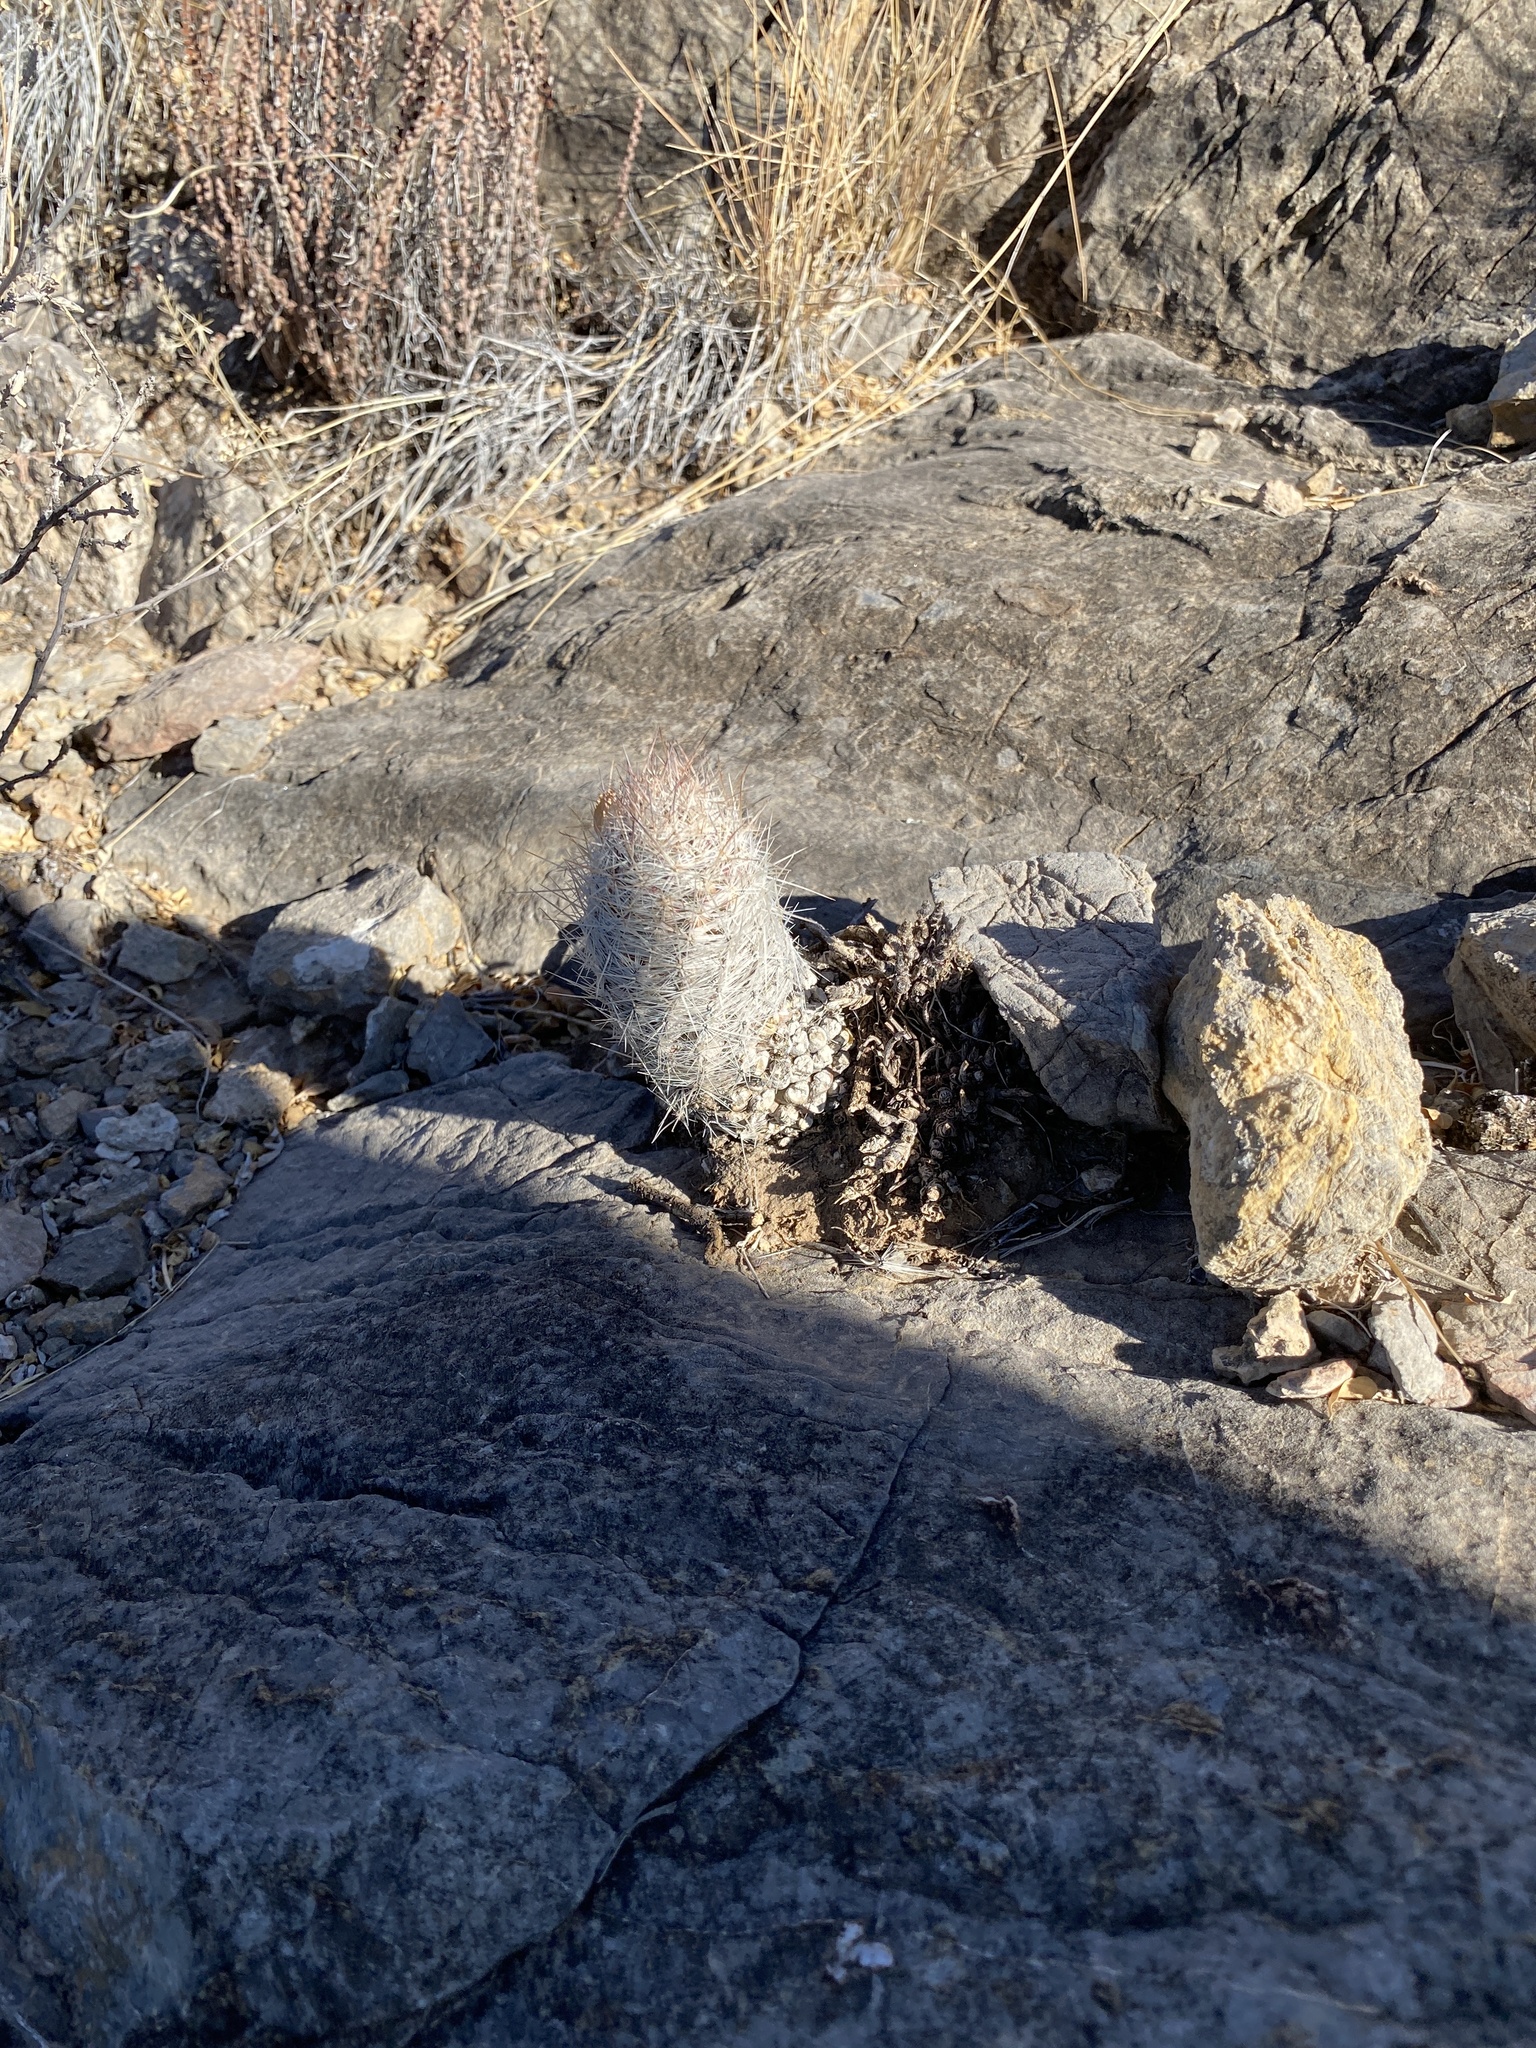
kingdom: Plantae
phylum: Tracheophyta
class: Magnoliopsida
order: Caryophyllales
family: Cactaceae
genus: Pelecyphora
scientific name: Pelecyphora tuberculosa
